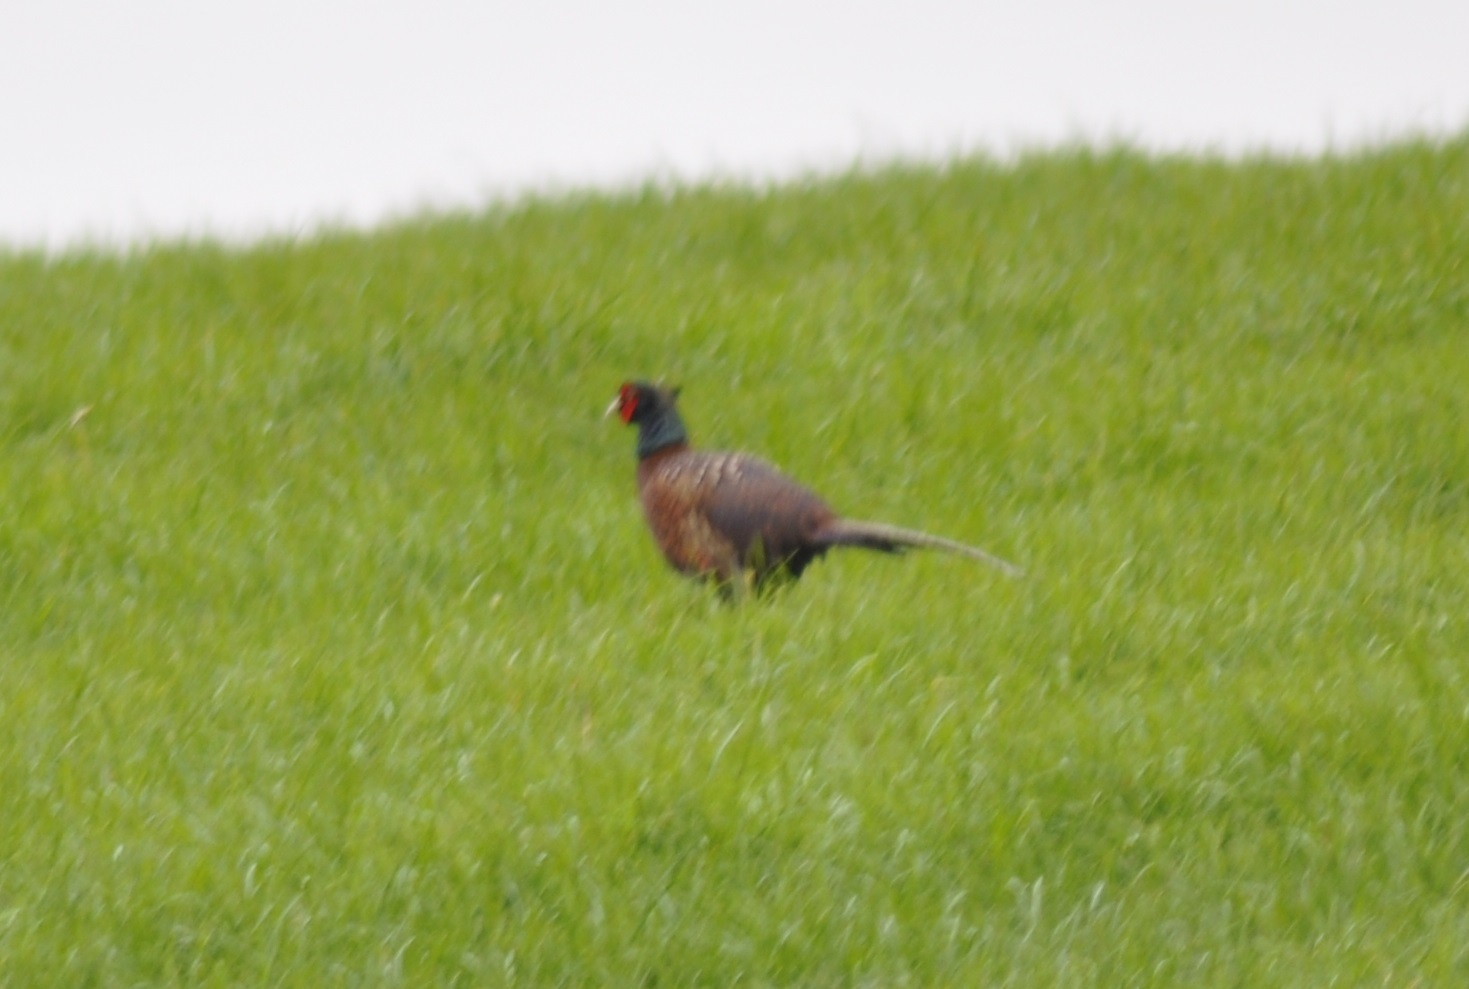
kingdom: Animalia
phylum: Chordata
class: Aves
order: Galliformes
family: Phasianidae
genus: Phasianus
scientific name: Phasianus colchicus
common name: Common pheasant
